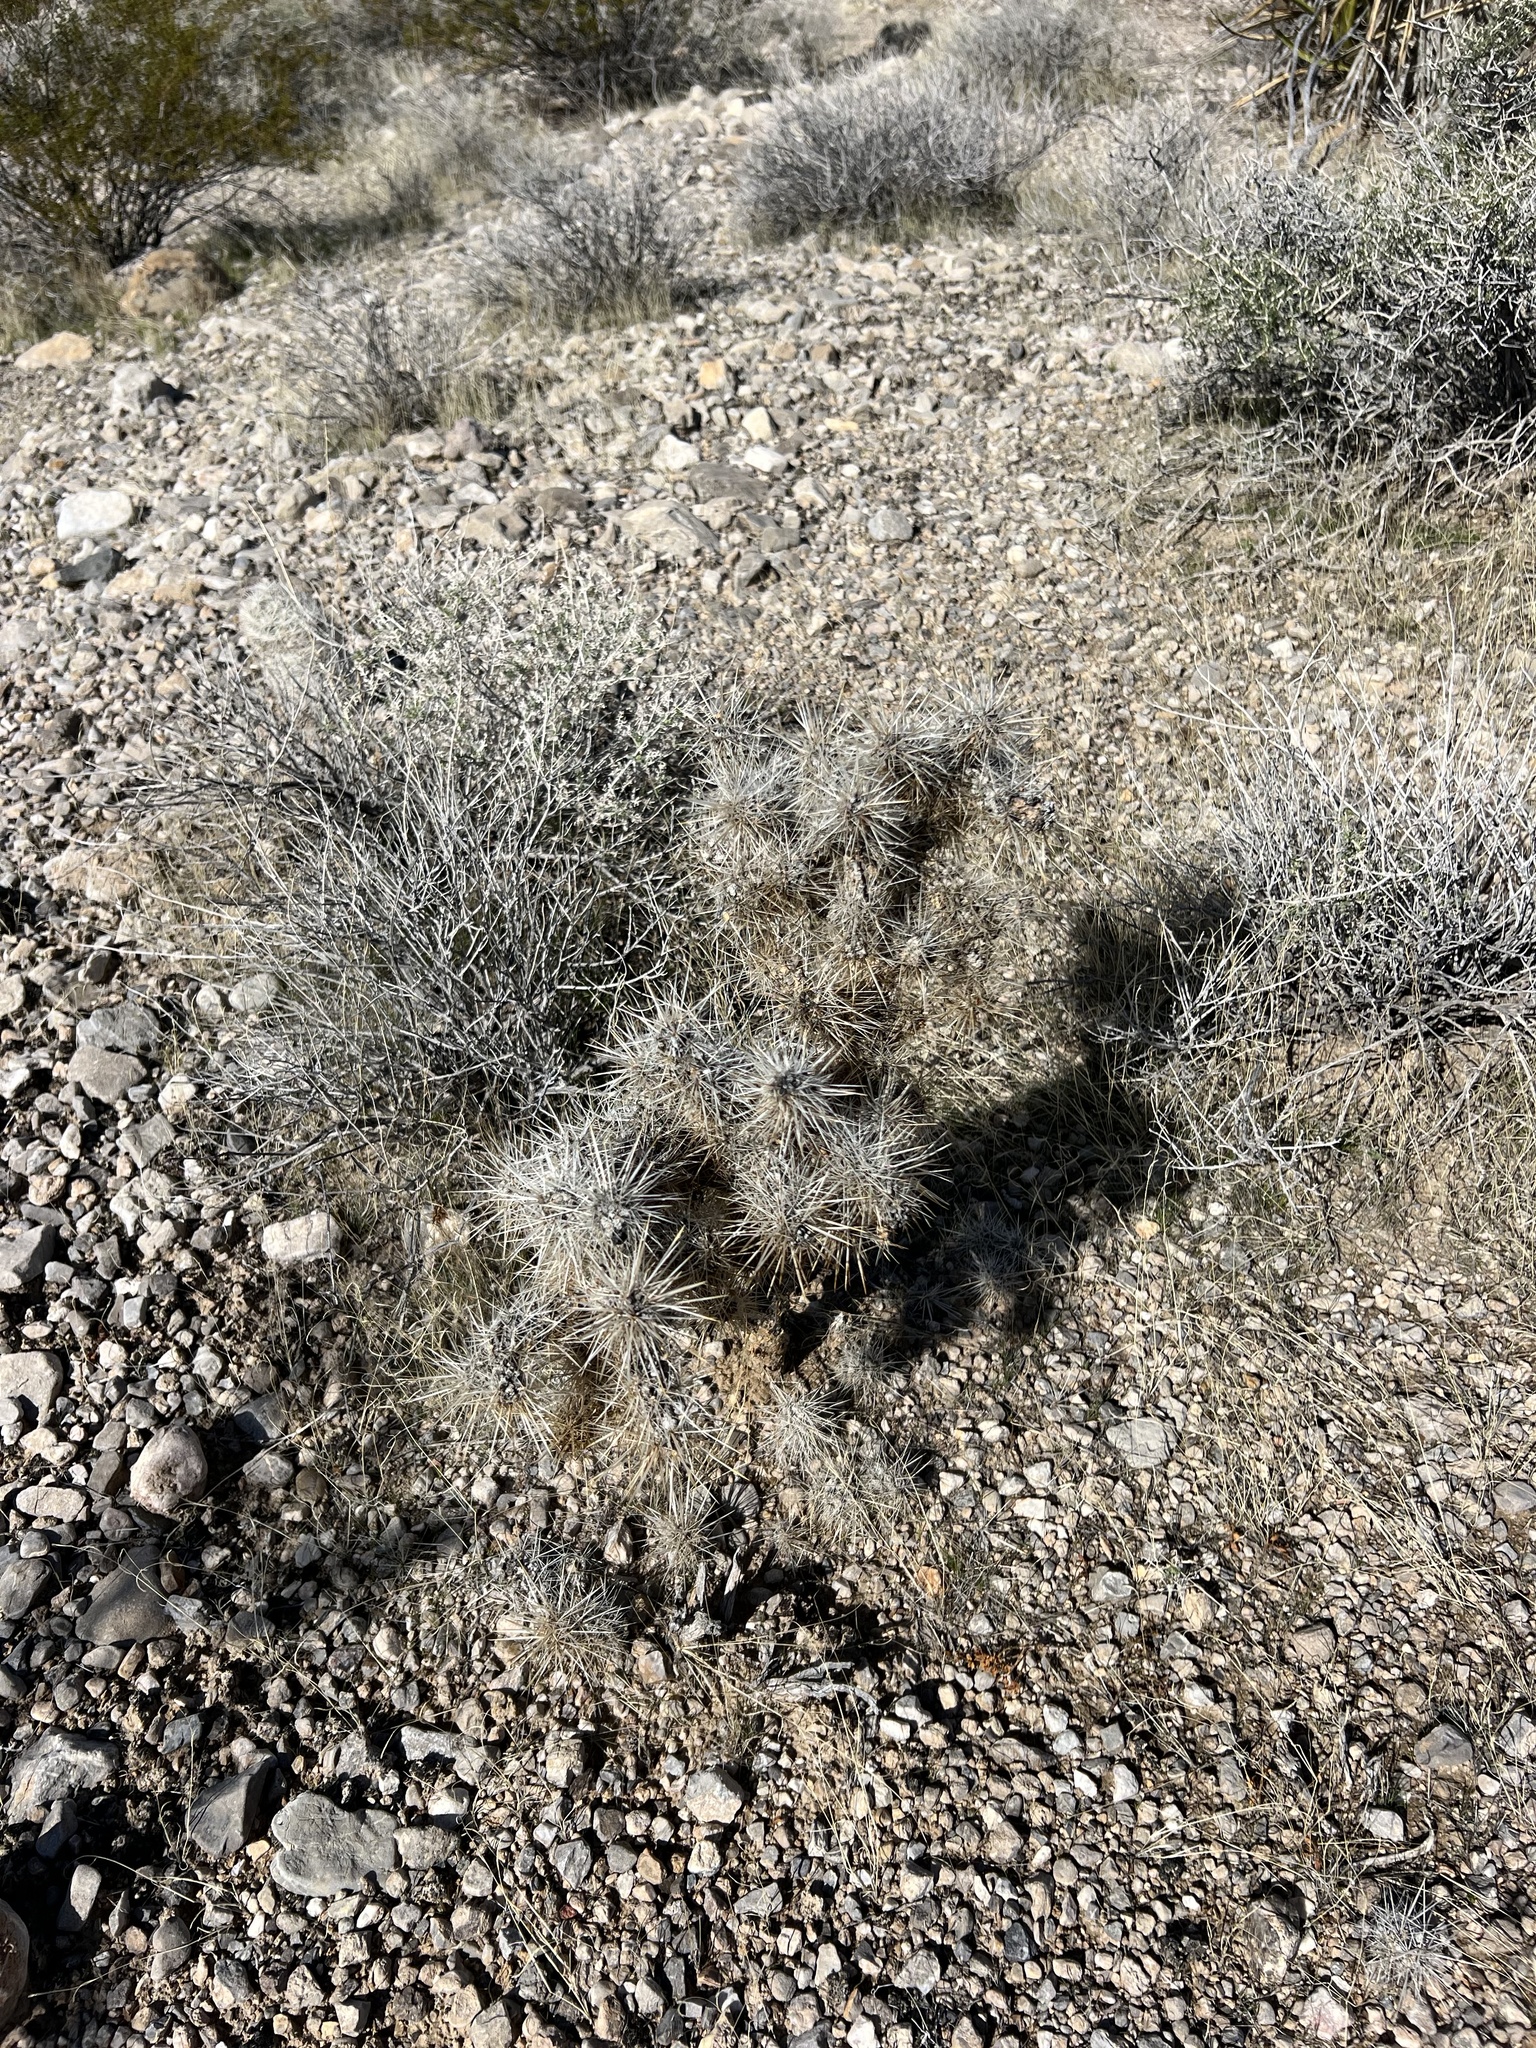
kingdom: Plantae
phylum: Tracheophyta
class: Magnoliopsida
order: Caryophyllales
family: Cactaceae
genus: Cylindropuntia
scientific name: Cylindropuntia echinocarpa
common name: Ground cholla
